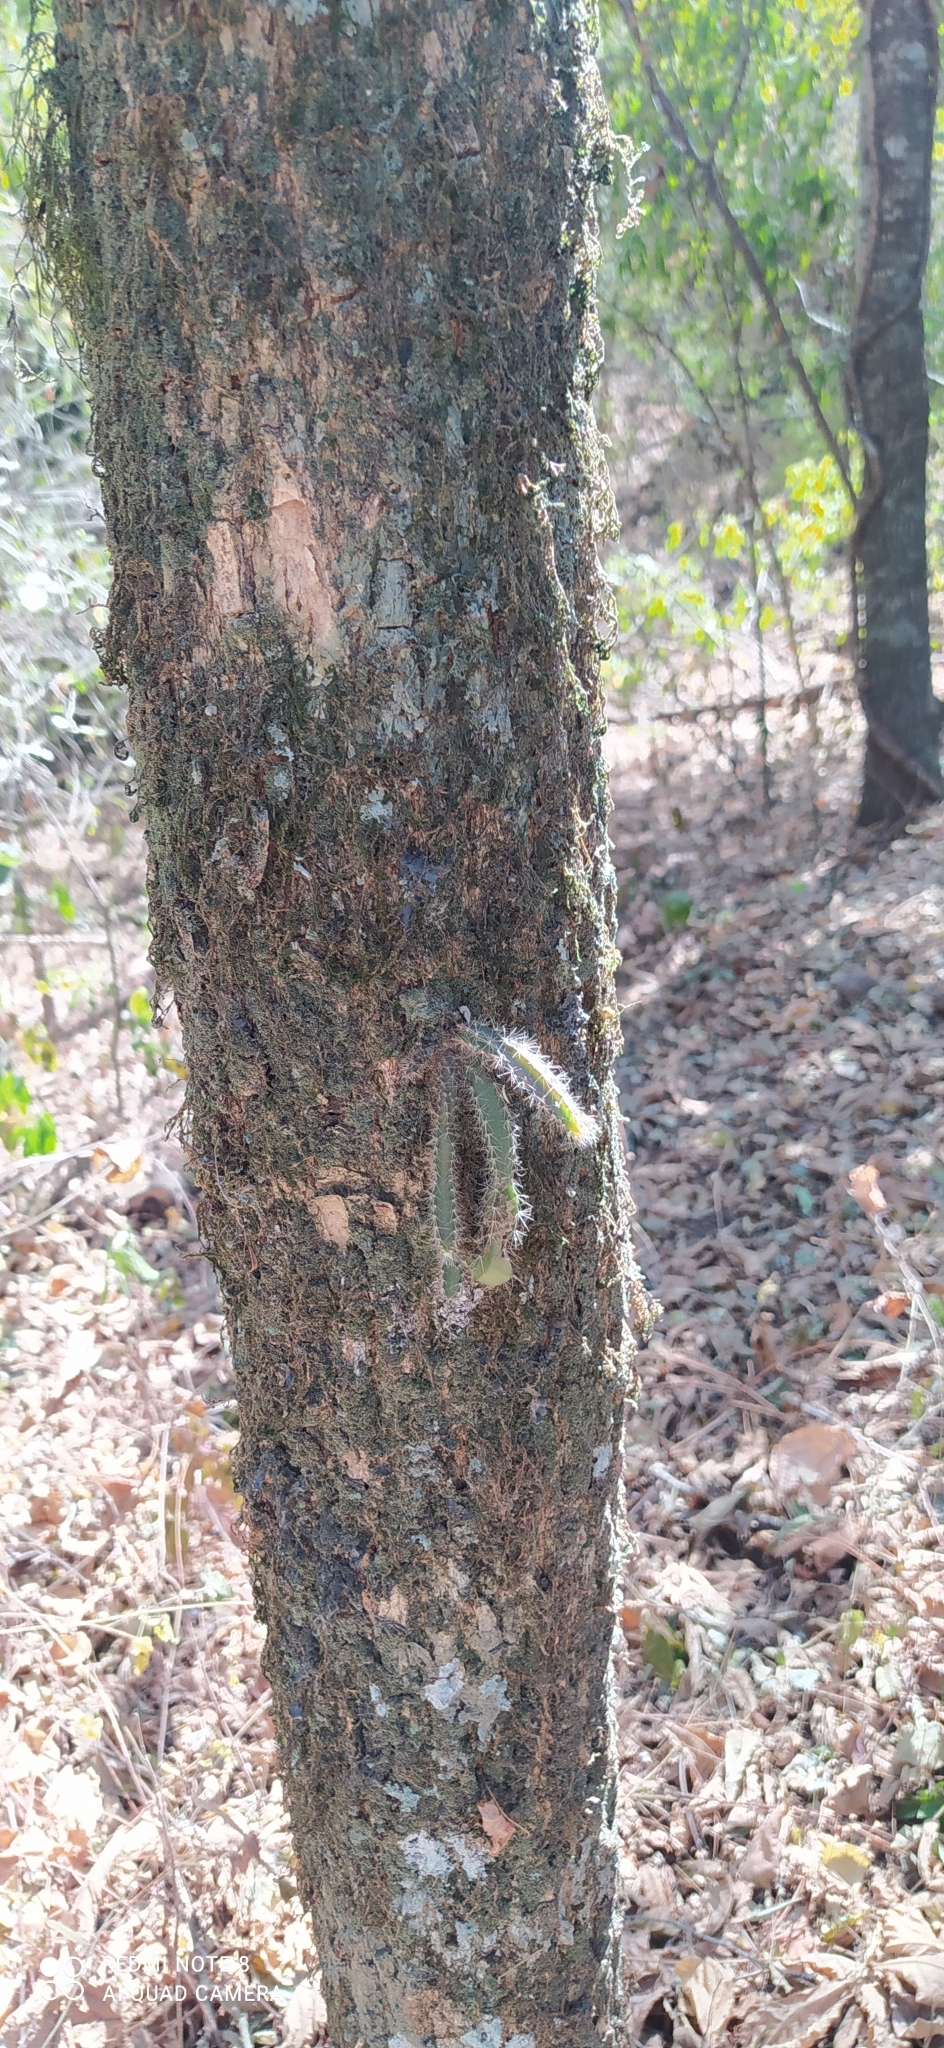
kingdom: Plantae
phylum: Tracheophyta
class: Magnoliopsida
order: Caryophyllales
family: Cactaceae
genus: Pfeiffera
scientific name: Pfeiffera ianthothele
